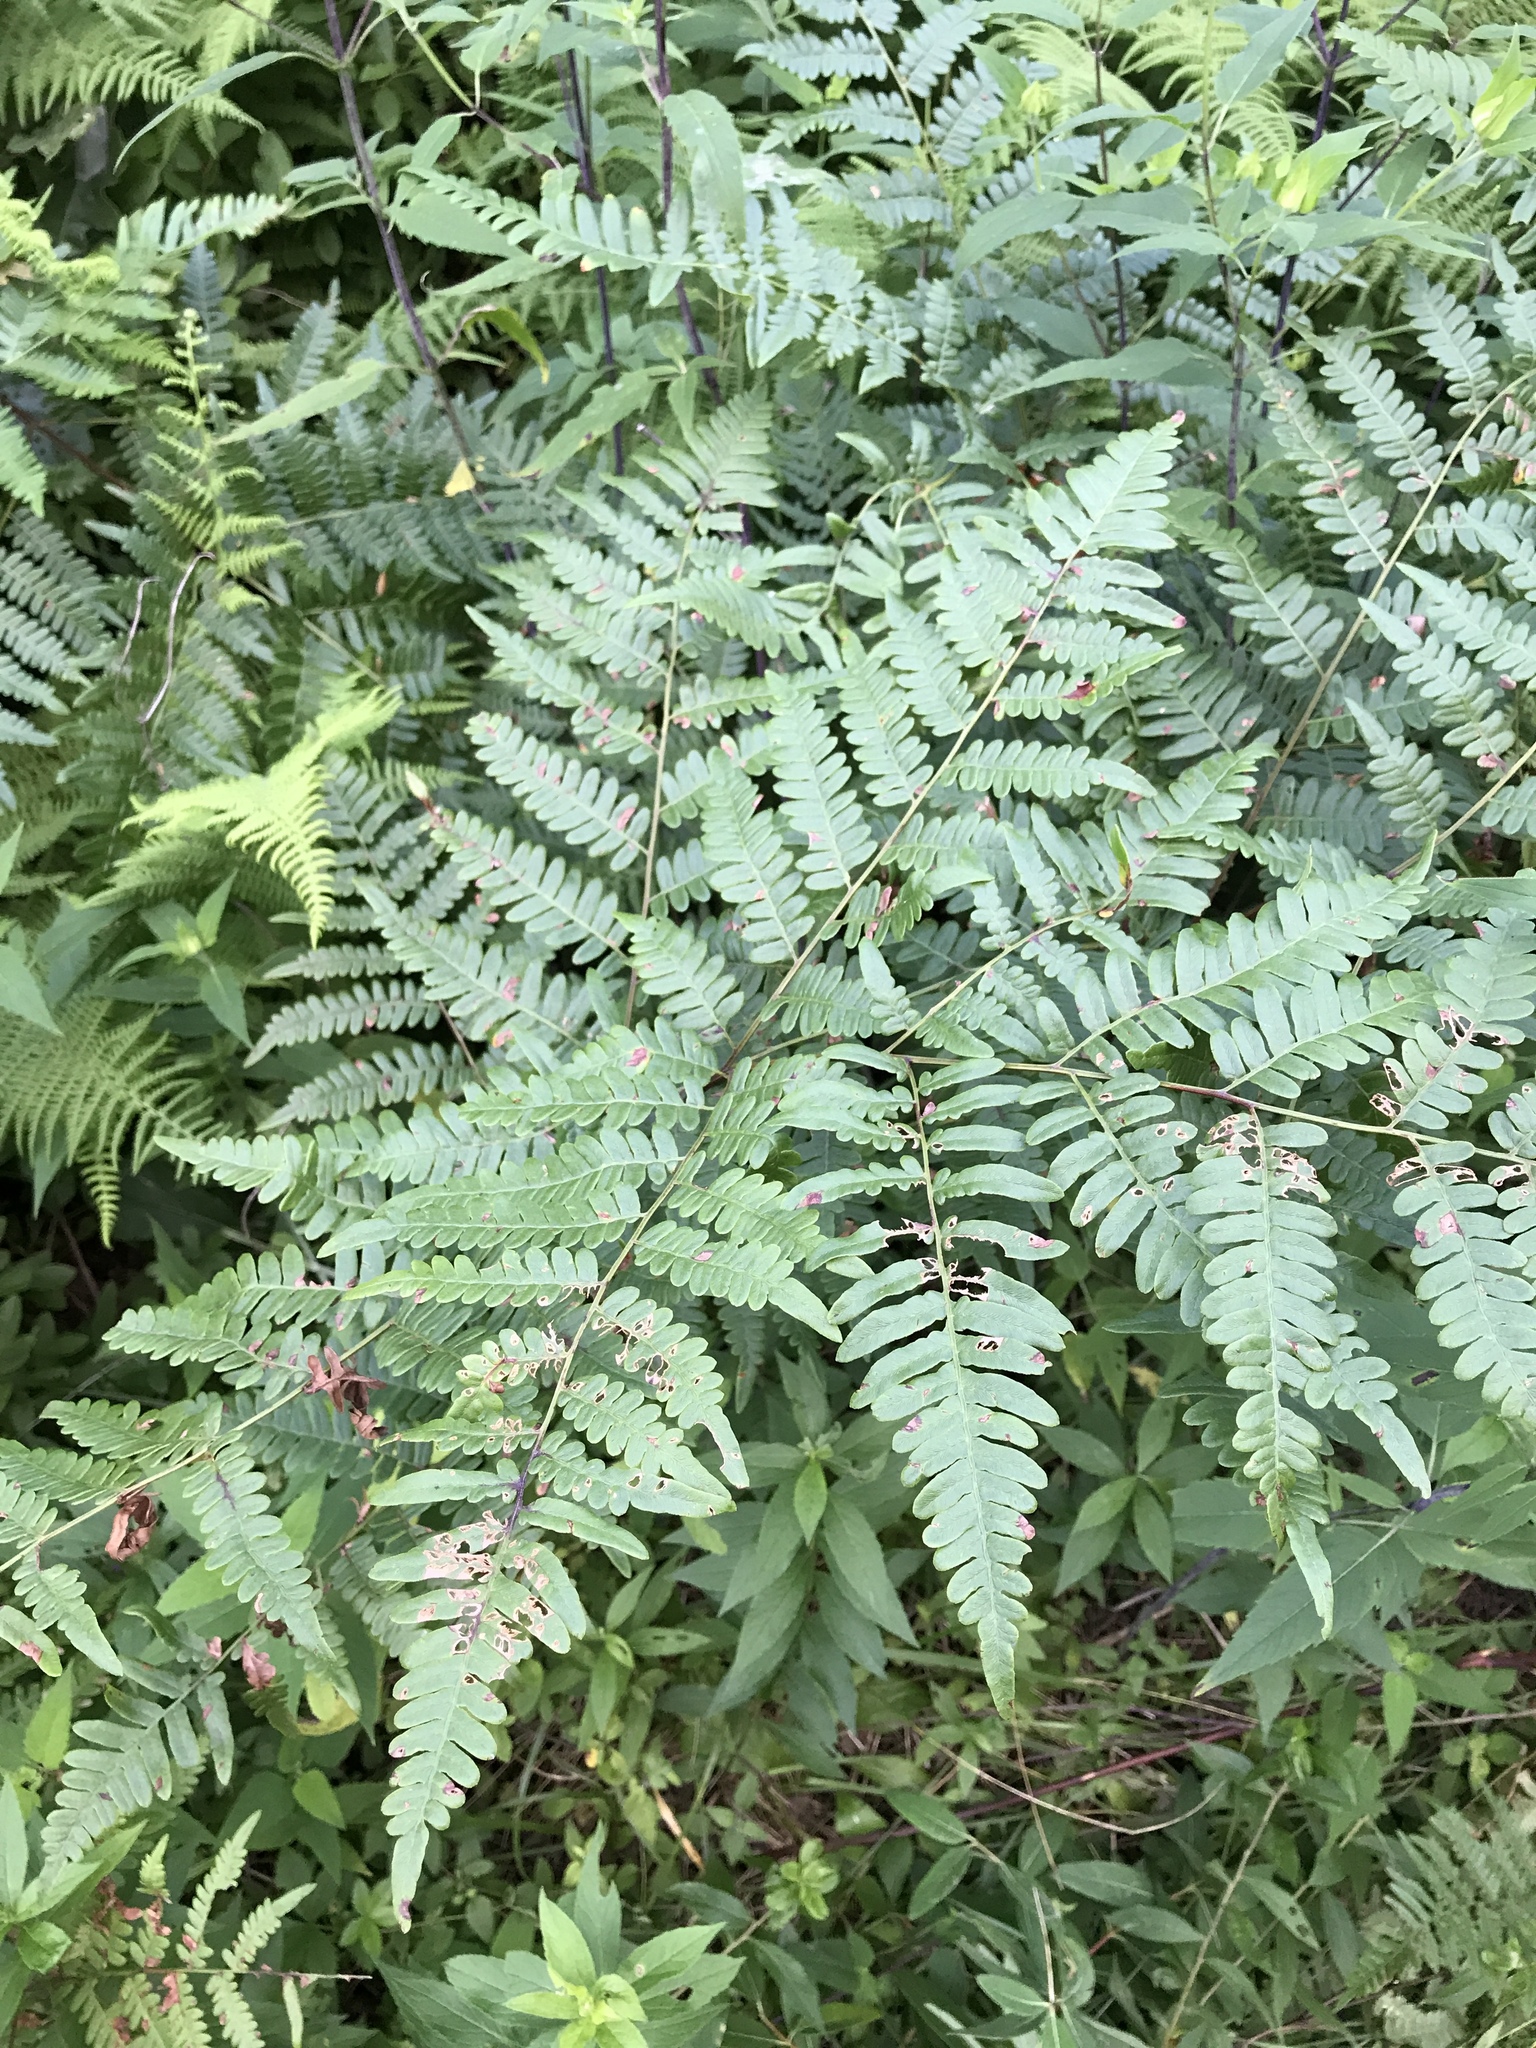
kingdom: Plantae
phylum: Tracheophyta
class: Polypodiopsida
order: Polypodiales
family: Dennstaedtiaceae
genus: Pteridium
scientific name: Pteridium aquilinum
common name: Bracken
